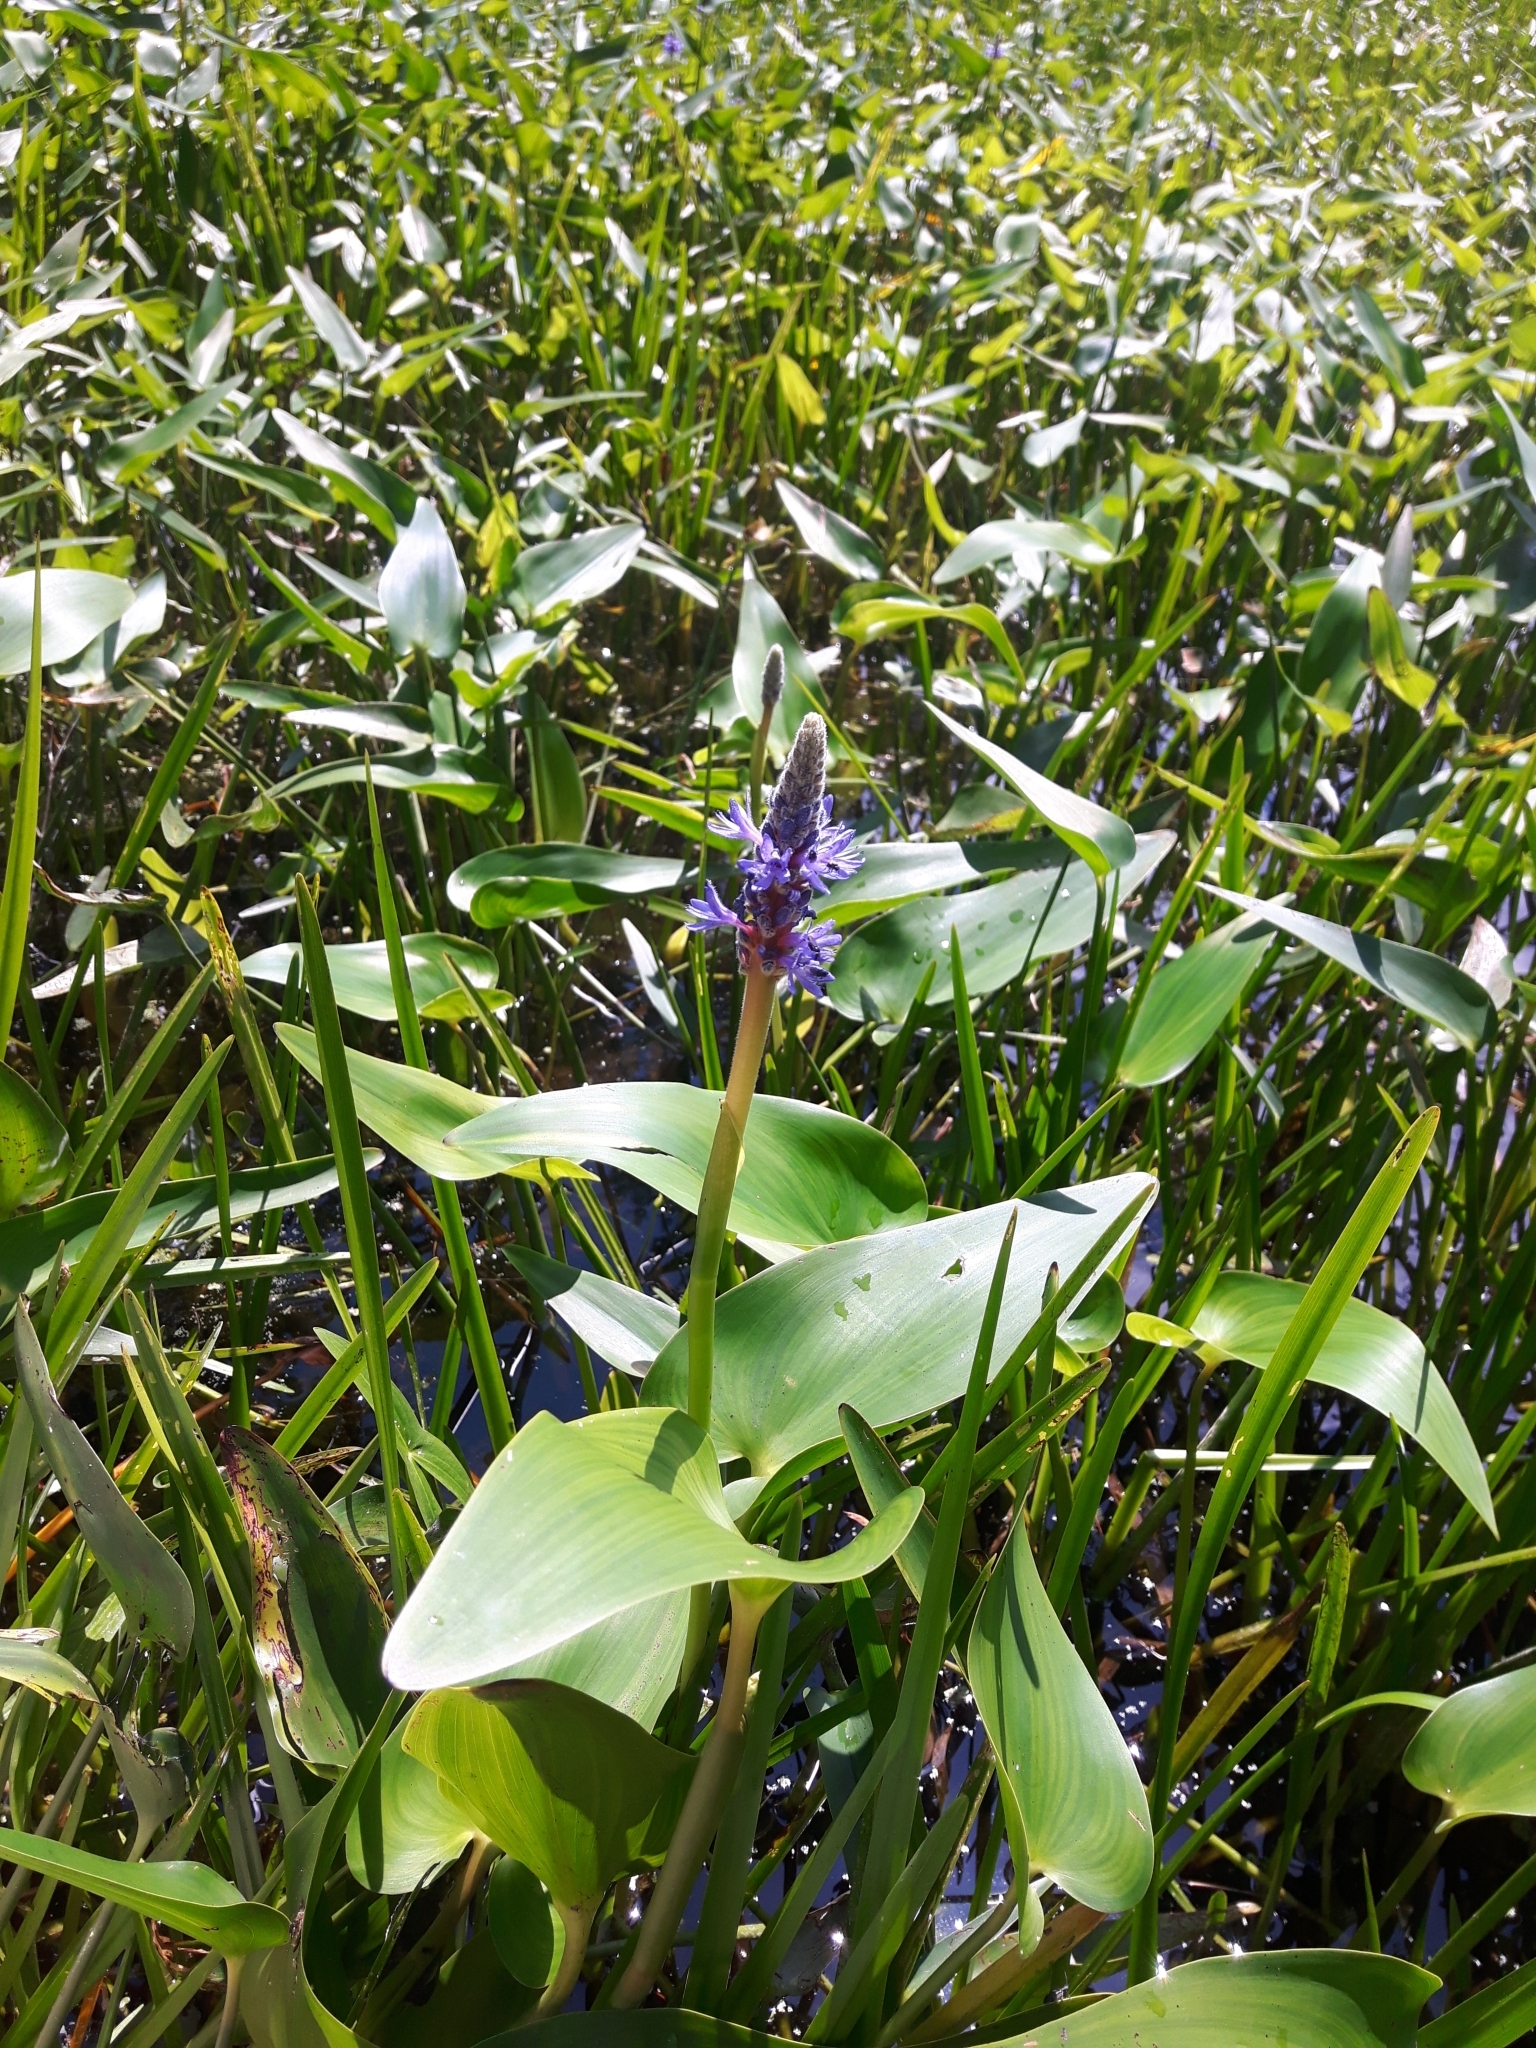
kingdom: Plantae
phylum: Tracheophyta
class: Liliopsida
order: Commelinales
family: Pontederiaceae
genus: Pontederia
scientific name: Pontederia cordata
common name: Pickerelweed
